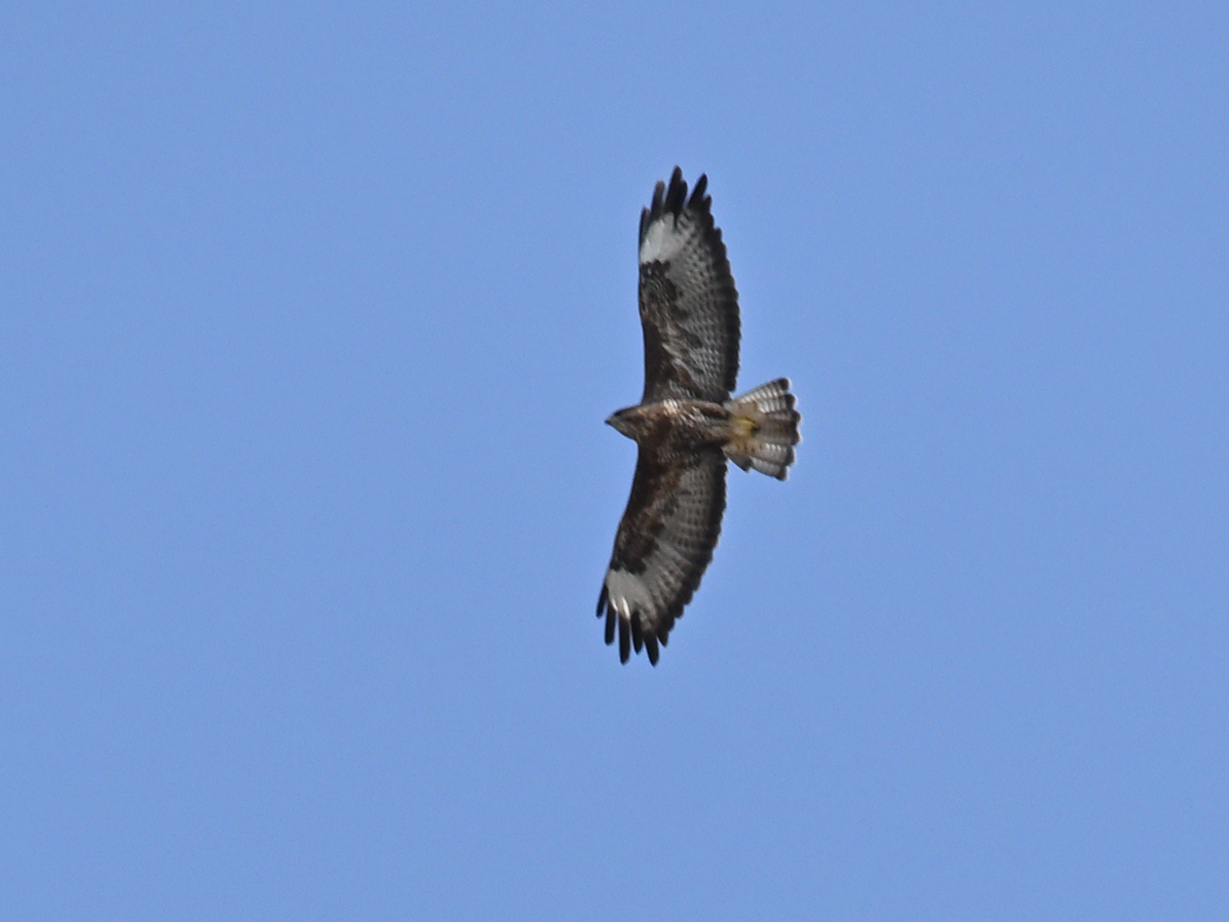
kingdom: Animalia
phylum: Chordata
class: Aves
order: Accipitriformes
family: Accipitridae
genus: Buteo
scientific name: Buteo buteo
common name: Common buzzard
